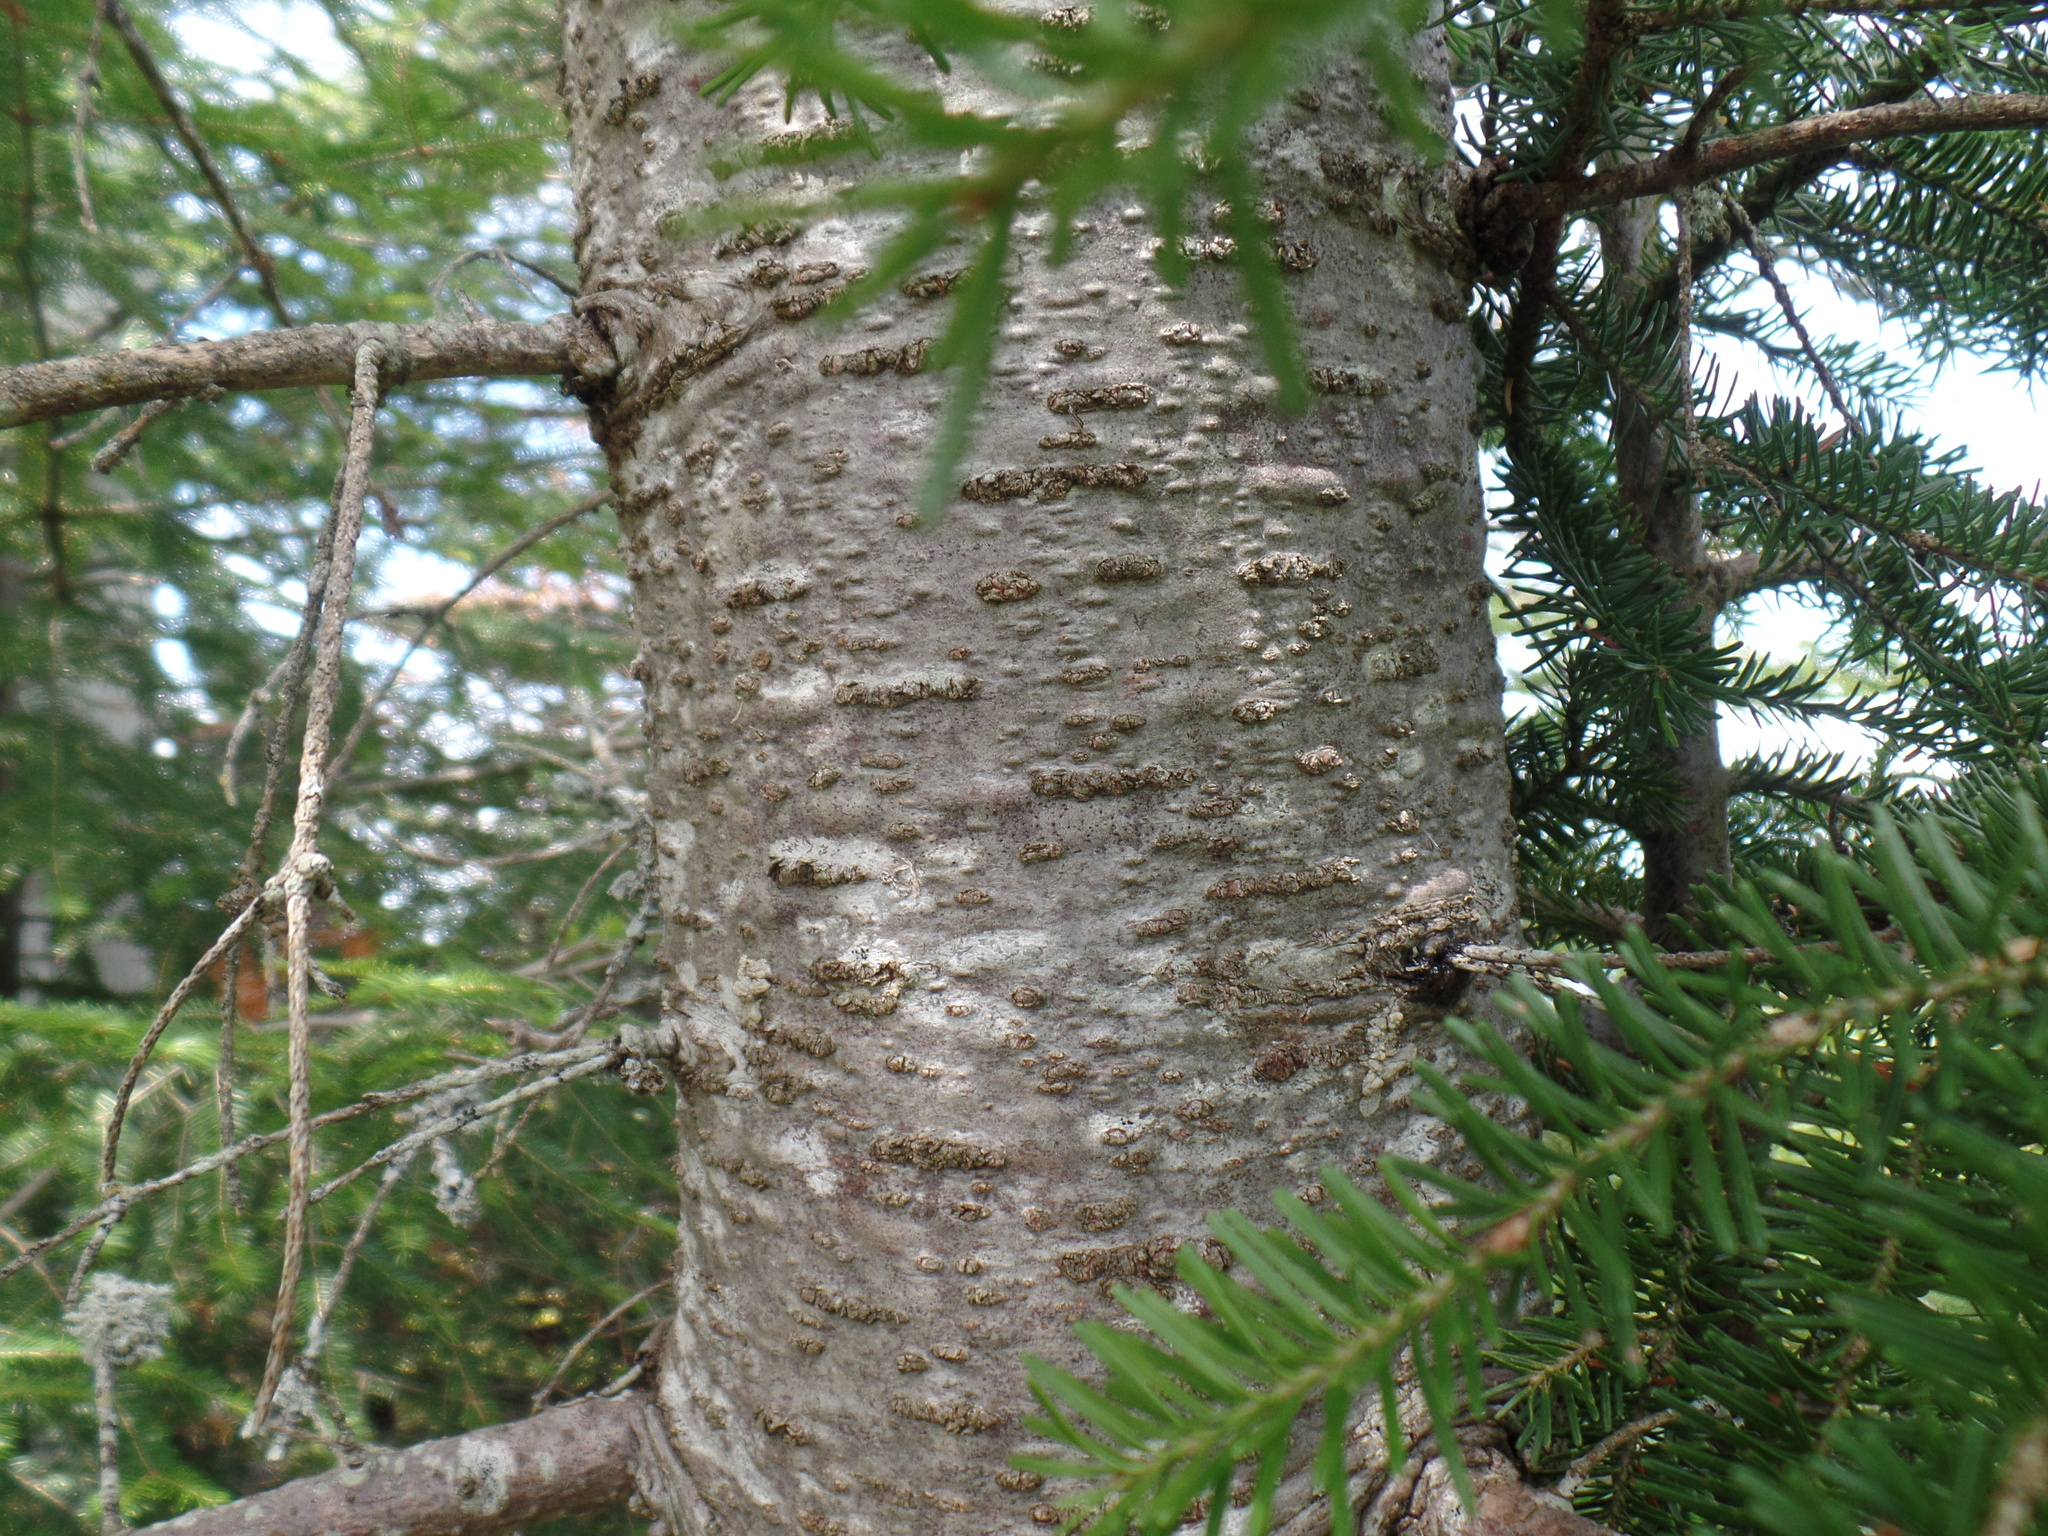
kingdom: Plantae
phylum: Tracheophyta
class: Pinopsida
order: Pinales
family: Pinaceae
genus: Abies
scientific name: Abies balsamea
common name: Balsam fir
